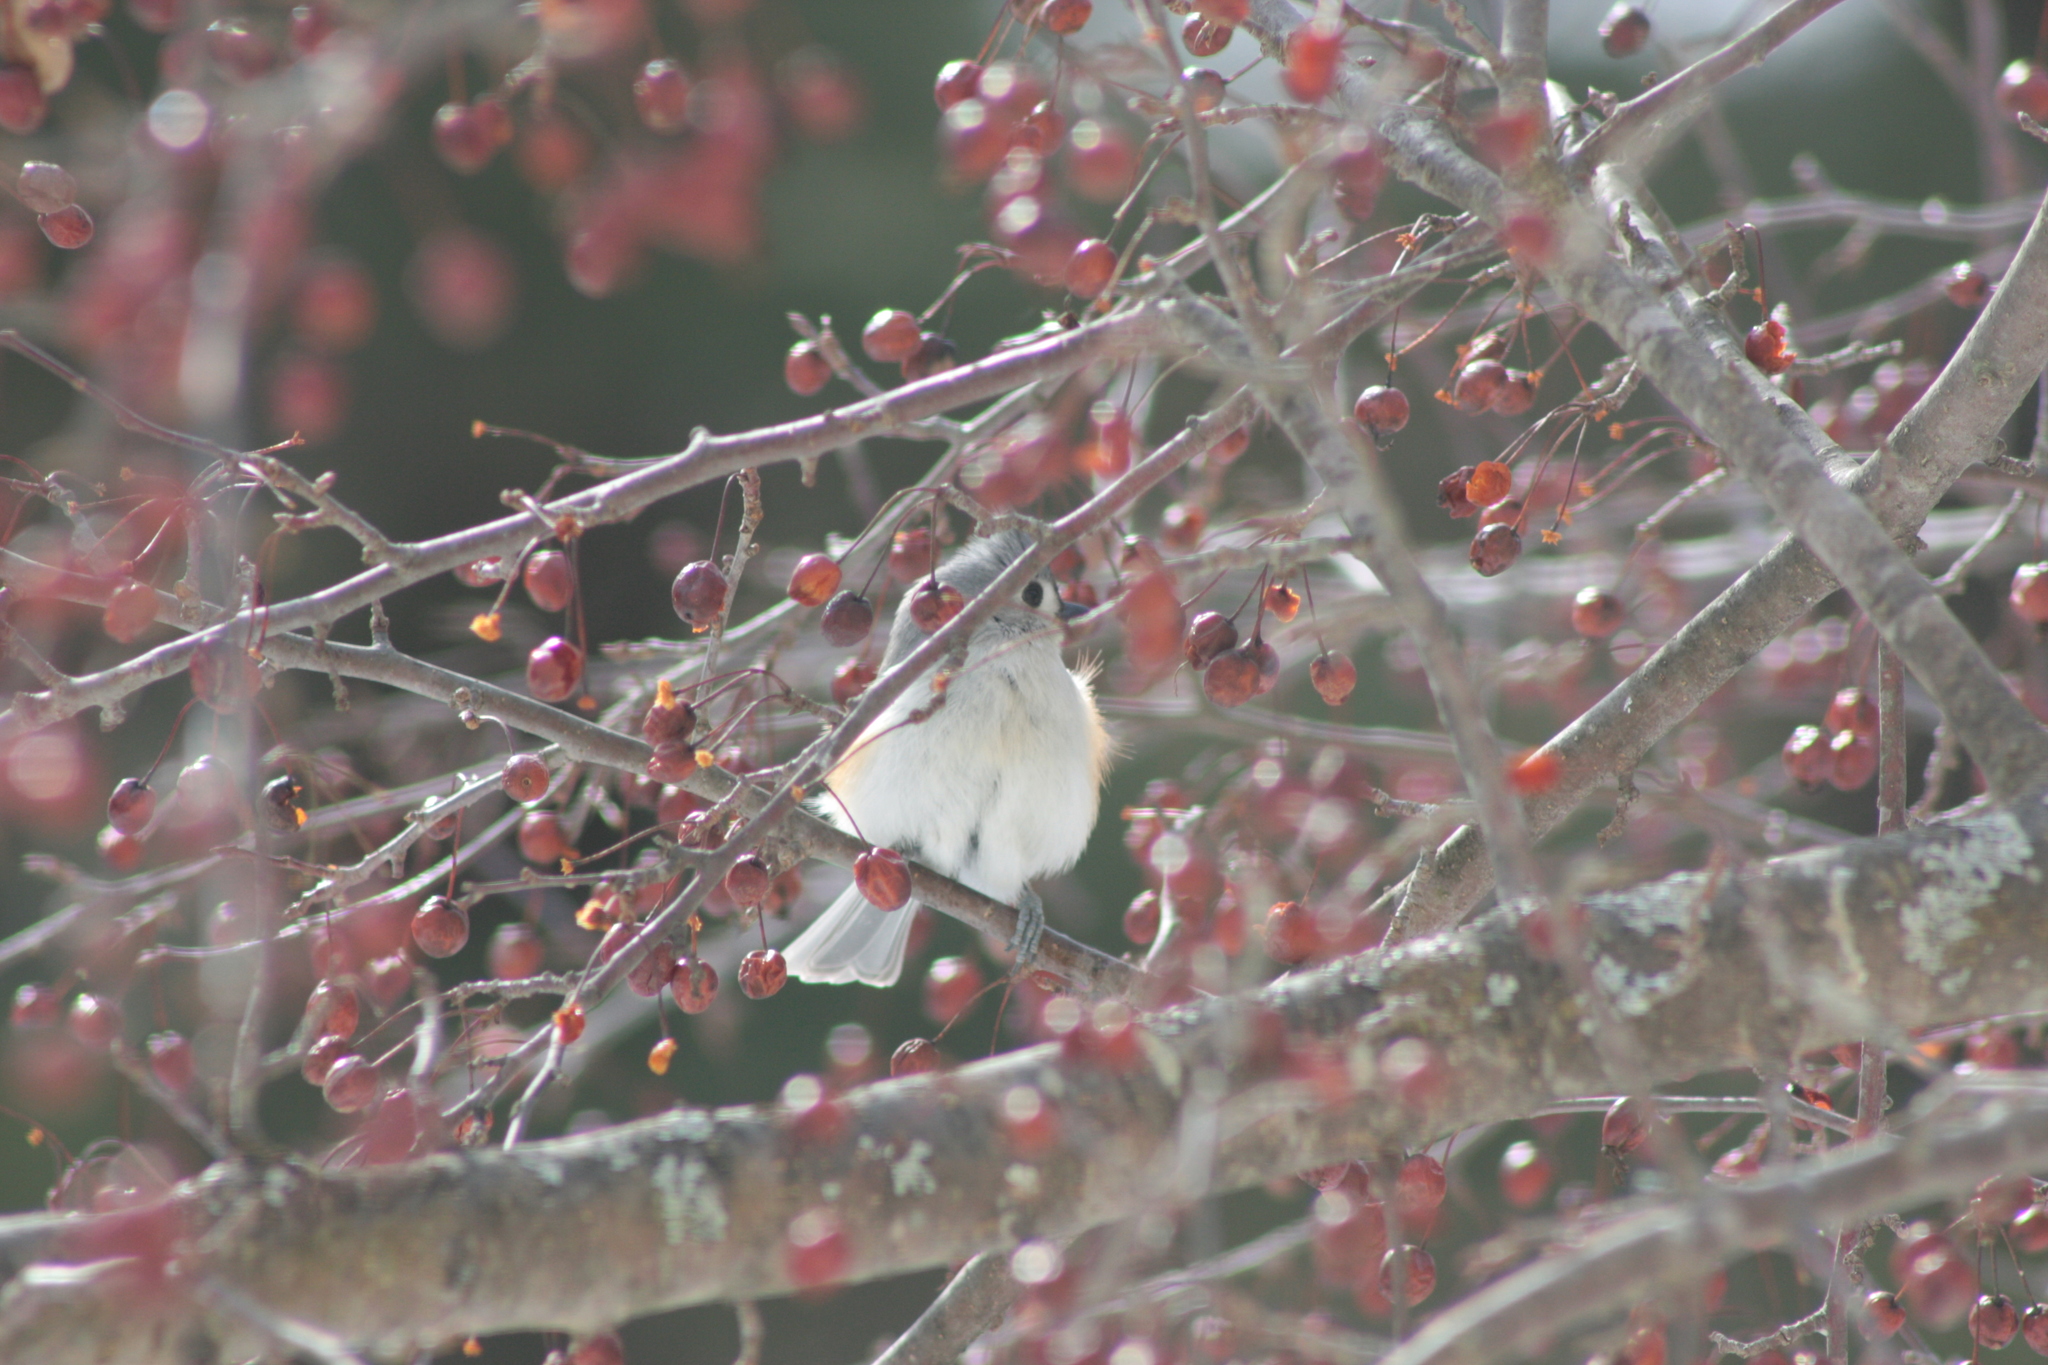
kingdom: Animalia
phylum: Chordata
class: Aves
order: Passeriformes
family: Paridae
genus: Baeolophus
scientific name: Baeolophus bicolor
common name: Tufted titmouse
